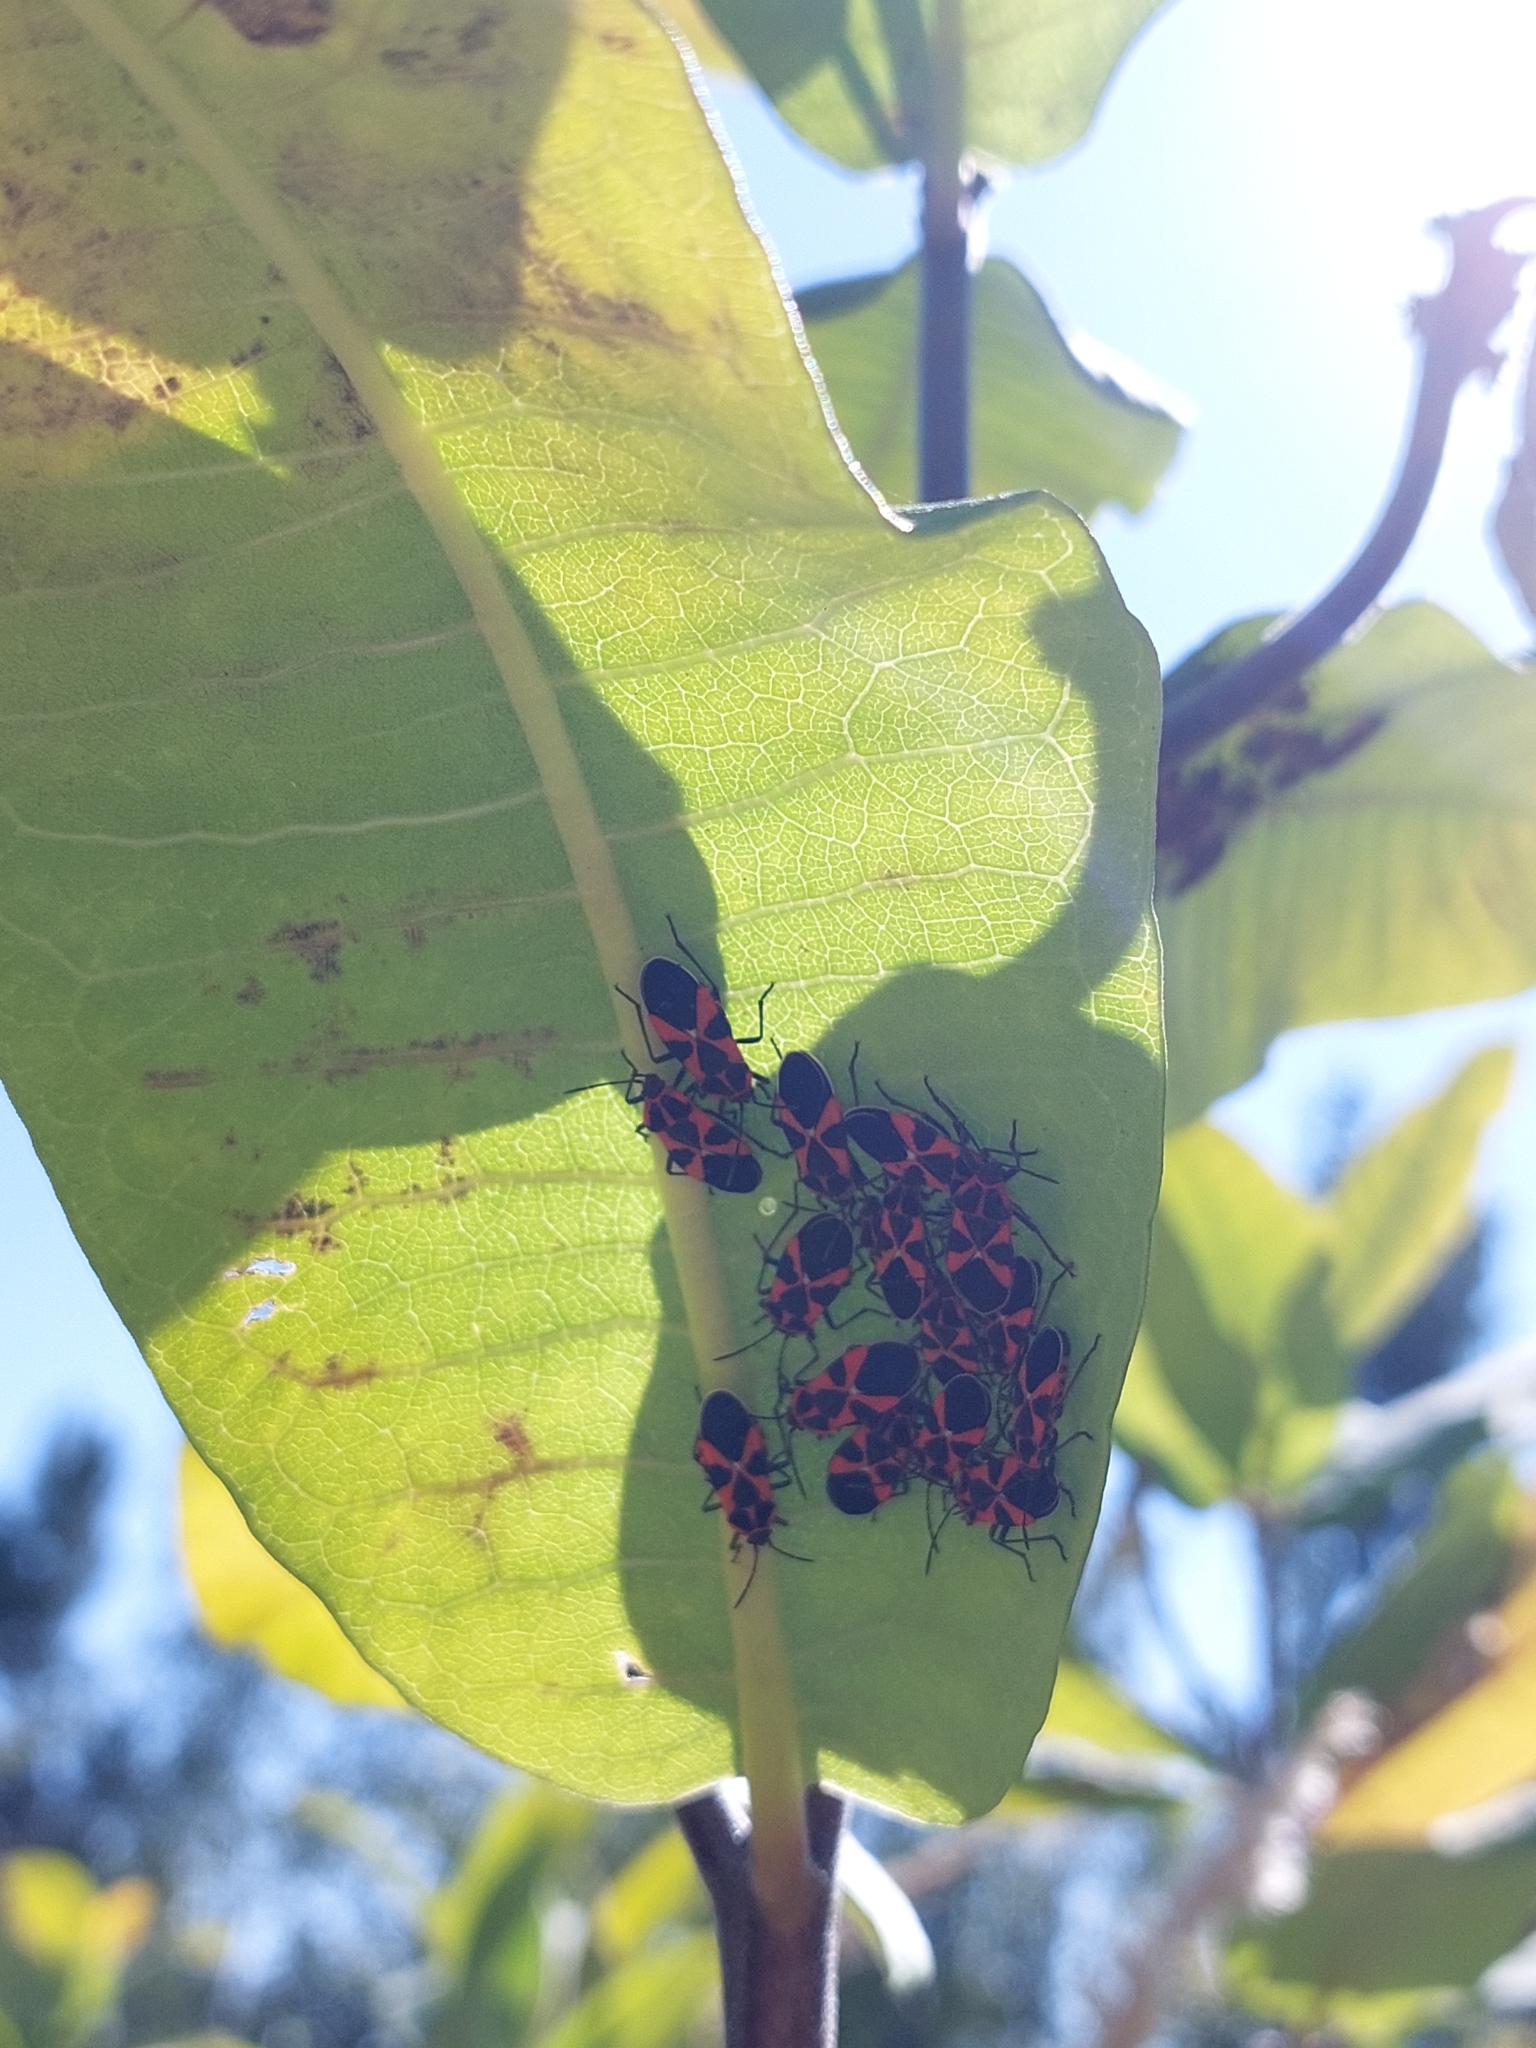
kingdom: Animalia
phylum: Arthropoda
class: Insecta
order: Hemiptera
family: Lygaeidae
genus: Tropidothorax
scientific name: Tropidothorax leucopterus
